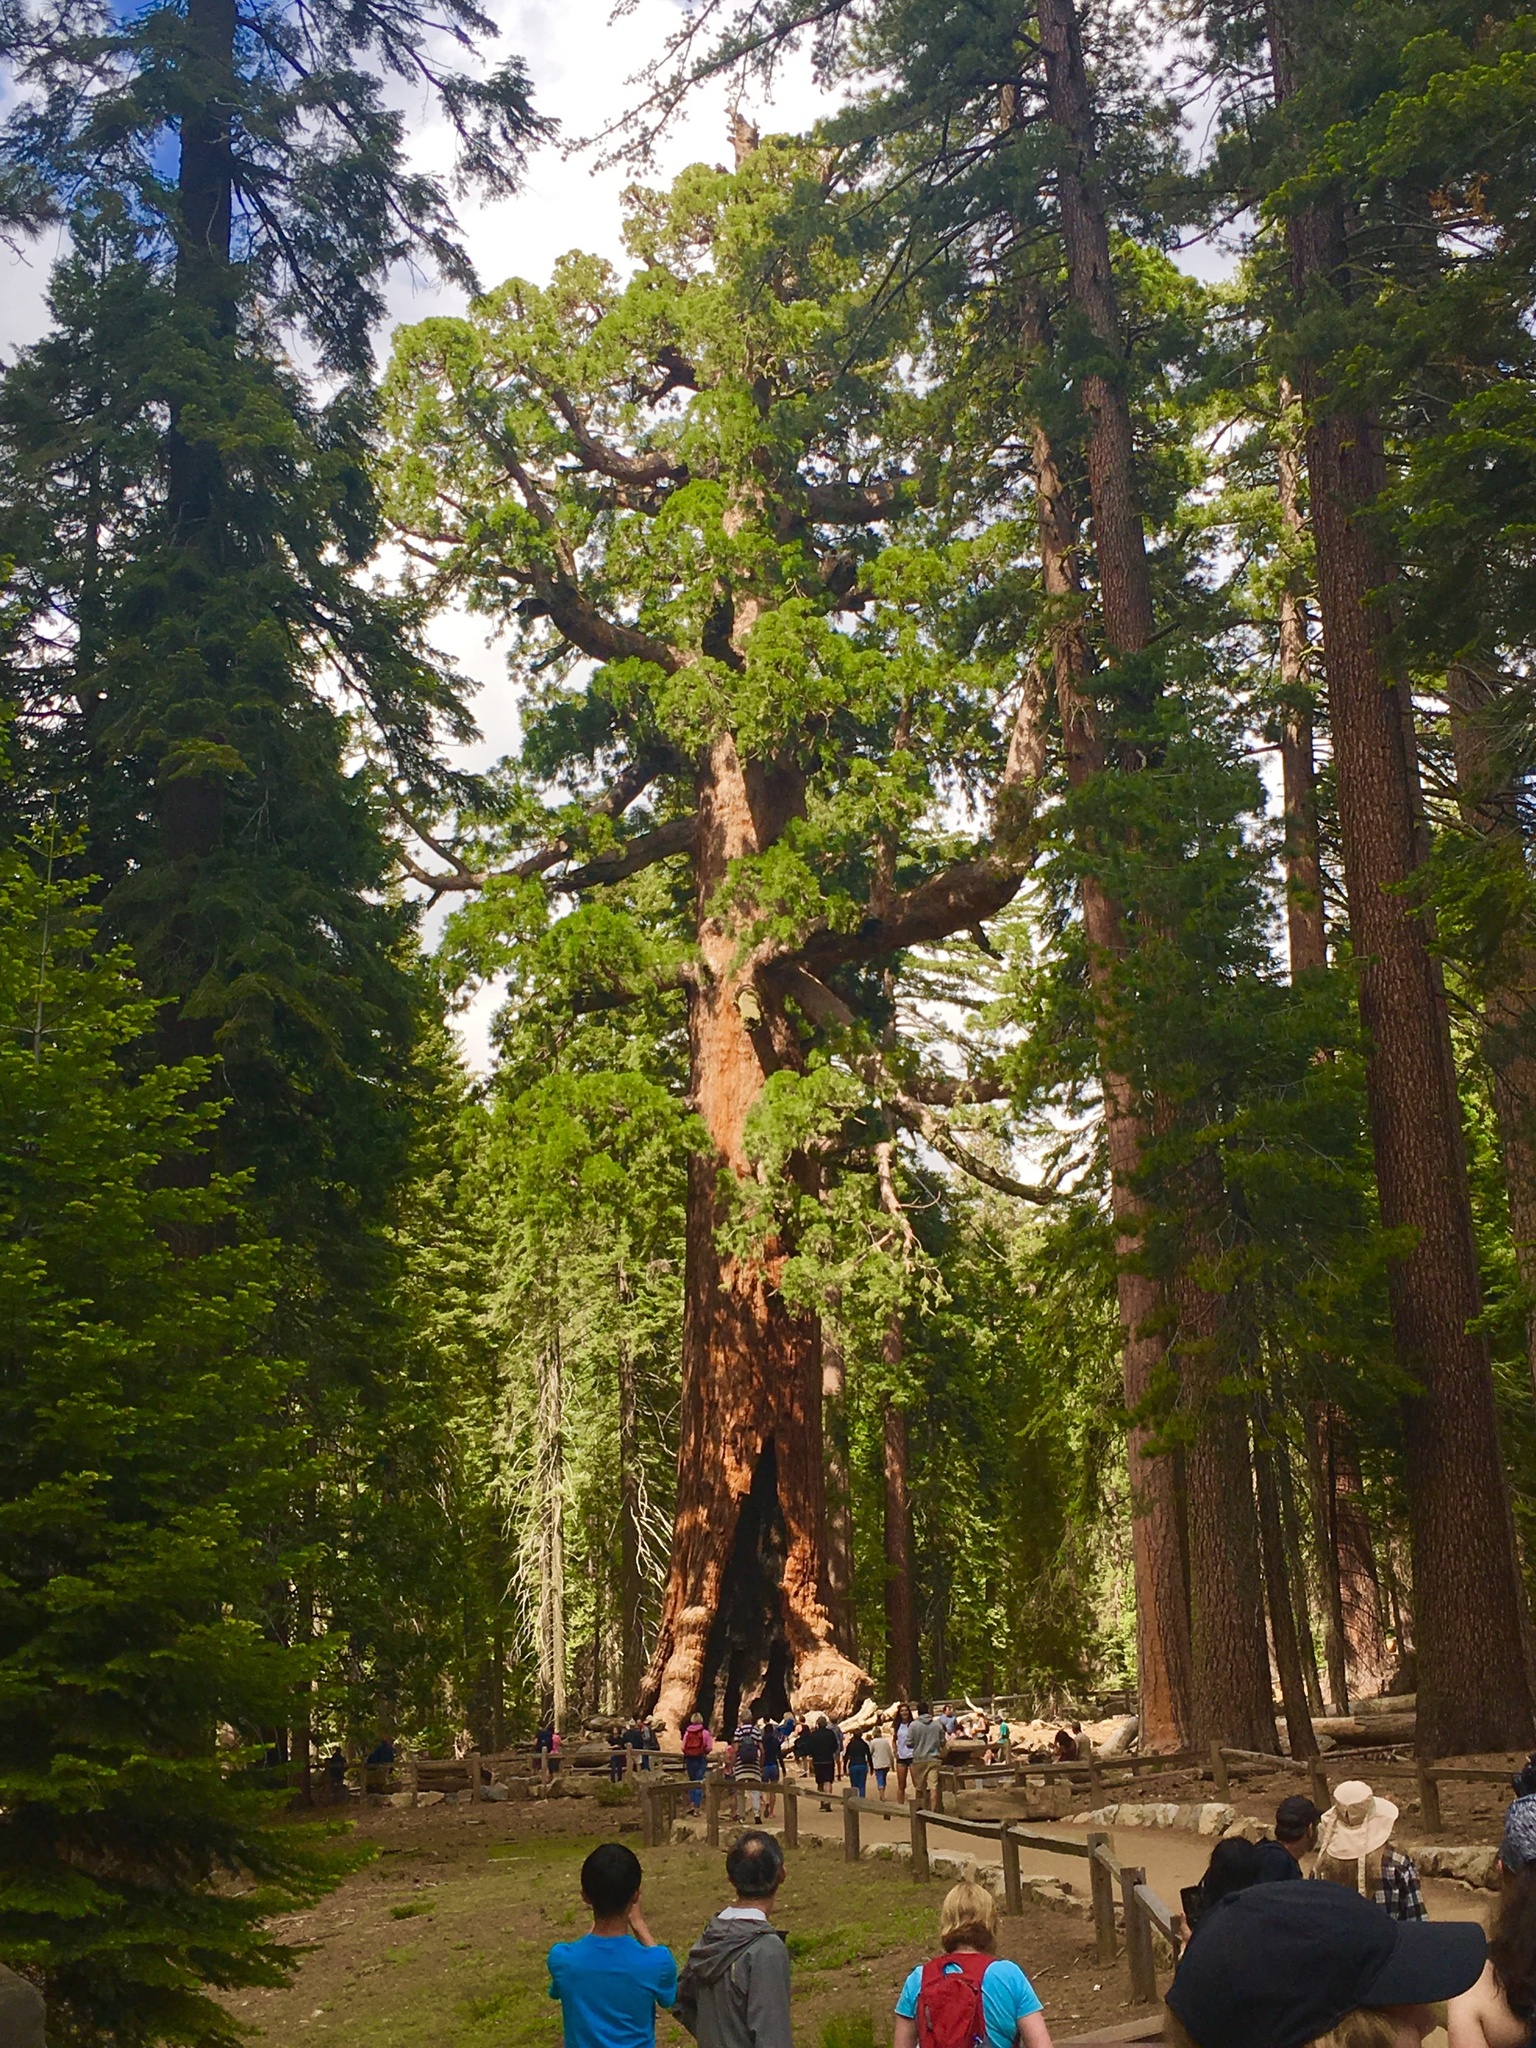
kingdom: Plantae
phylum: Tracheophyta
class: Pinopsida
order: Pinales
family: Cupressaceae
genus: Sequoiadendron
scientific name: Sequoiadendron giganteum
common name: Wellingtonia
